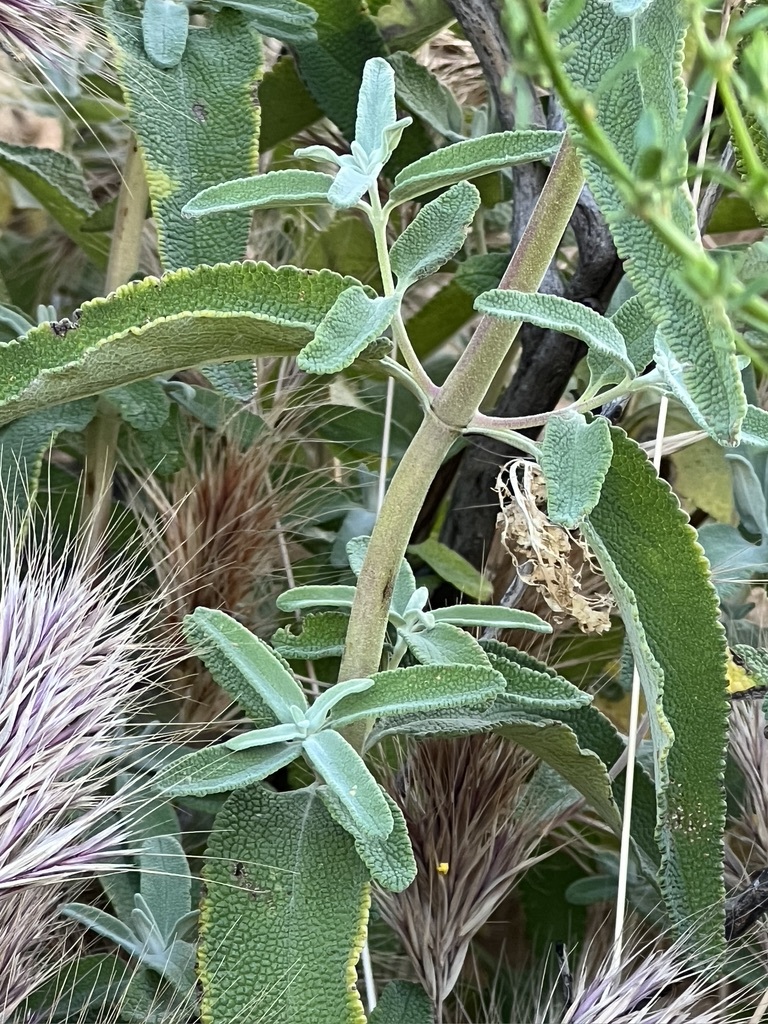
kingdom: Plantae
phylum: Tracheophyta
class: Magnoliopsida
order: Lamiales
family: Lamiaceae
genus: Salvia
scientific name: Salvia leucophylla
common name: Purple sage
